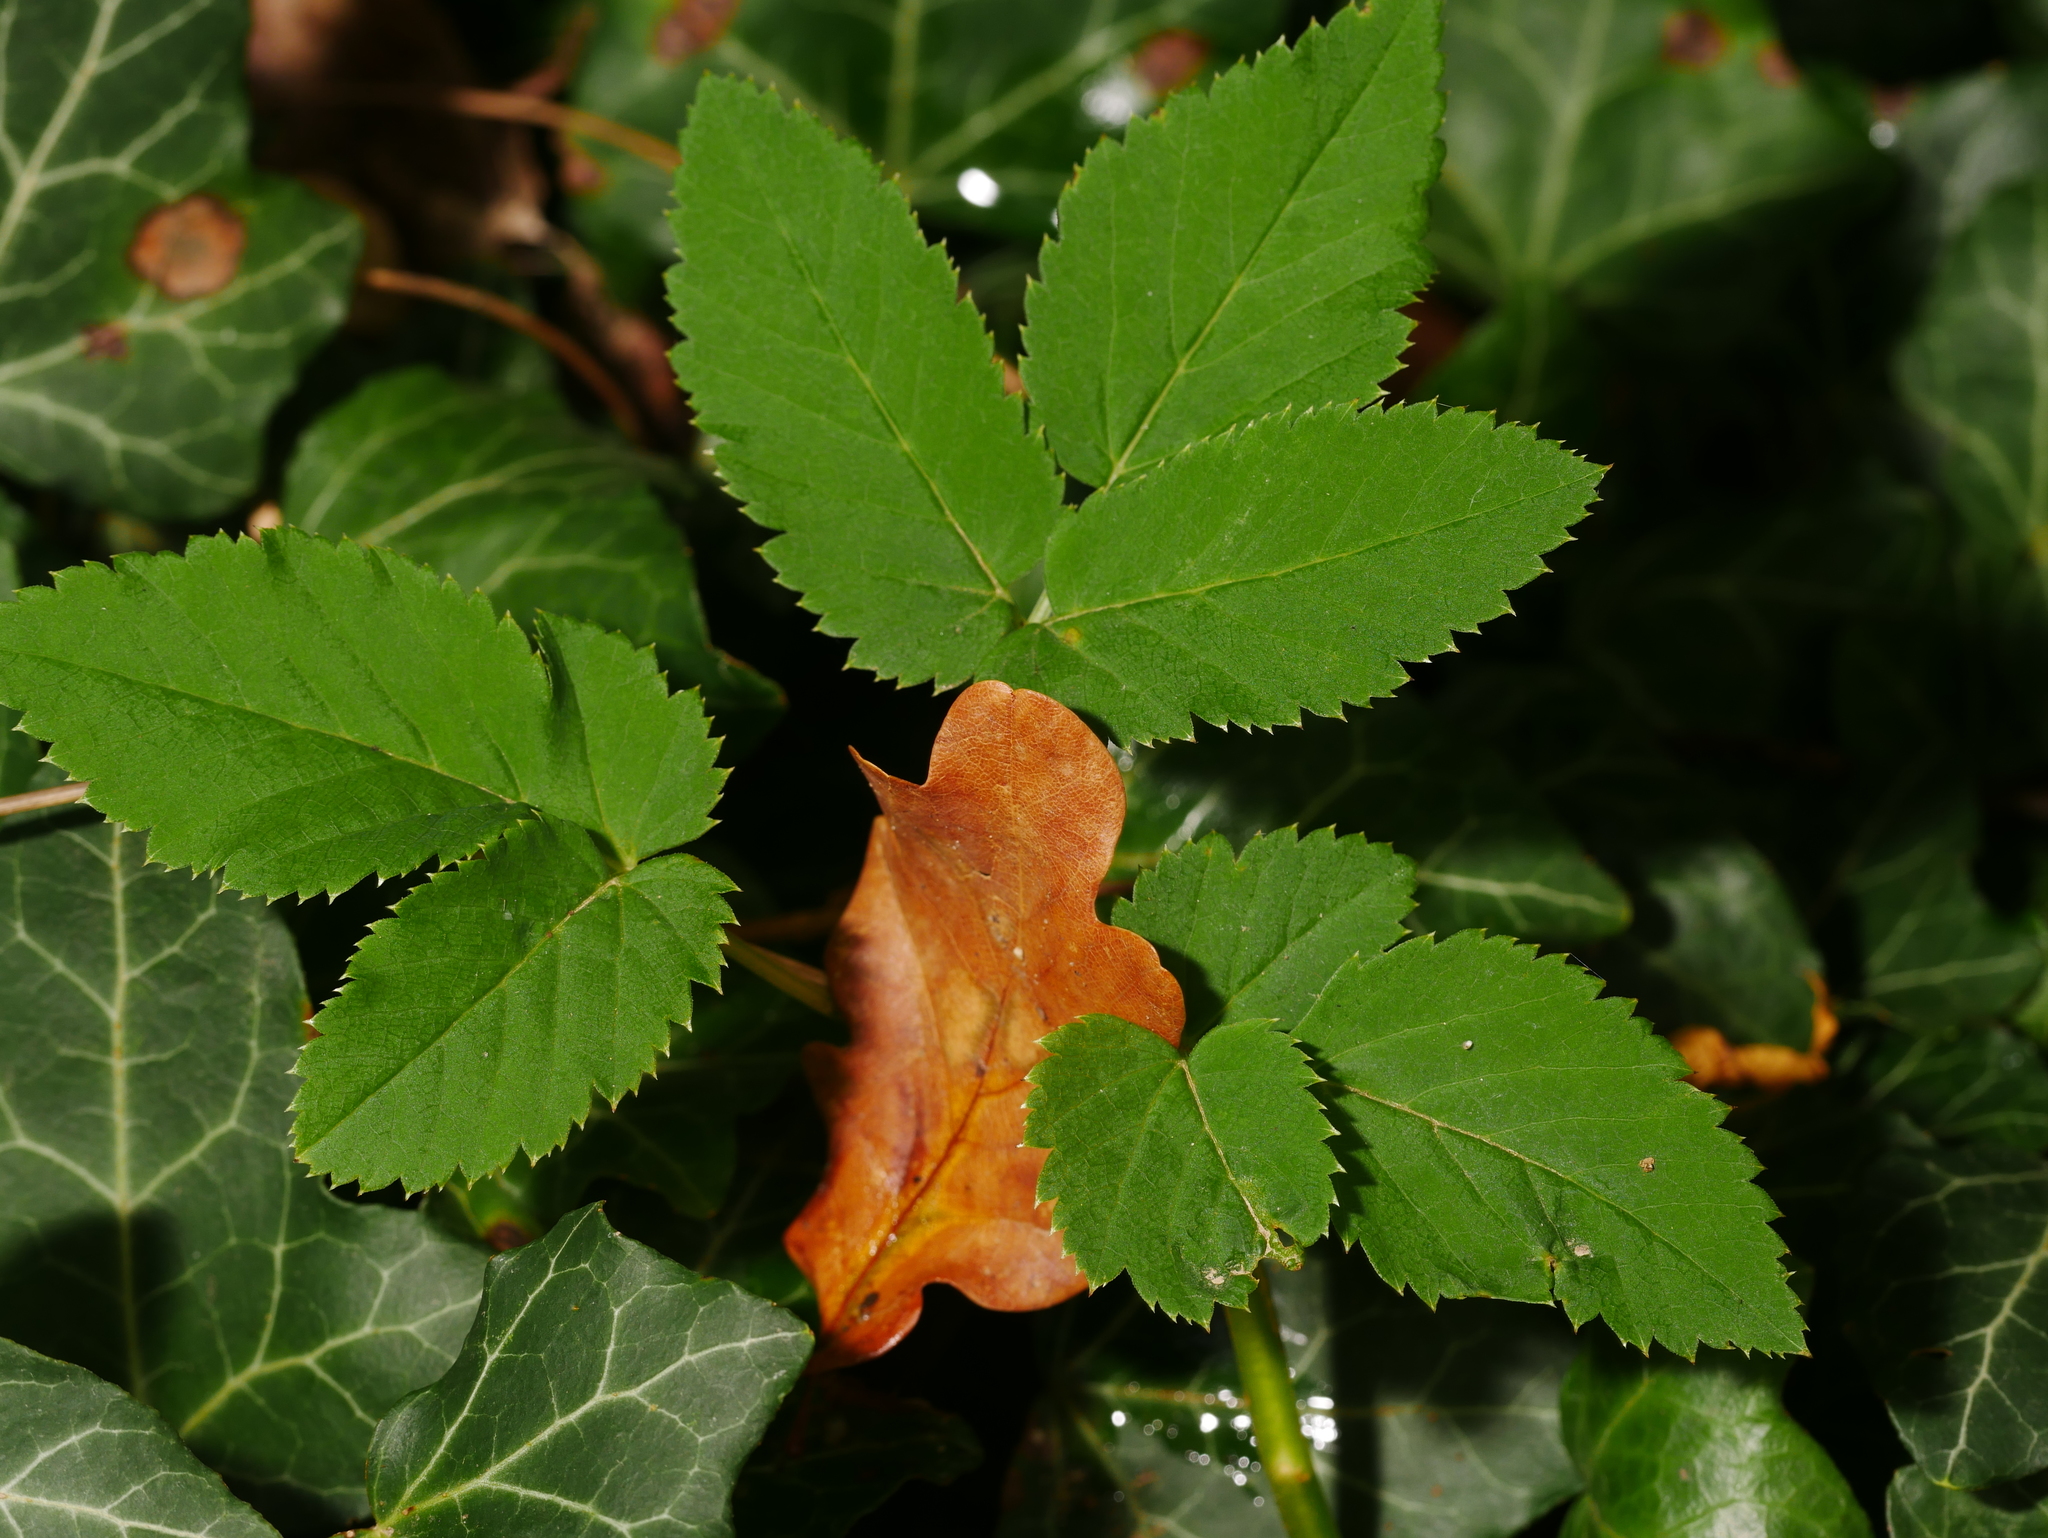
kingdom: Plantae
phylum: Tracheophyta
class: Magnoliopsida
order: Apiales
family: Apiaceae
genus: Aegopodium
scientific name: Aegopodium podagraria
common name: Ground-elder
